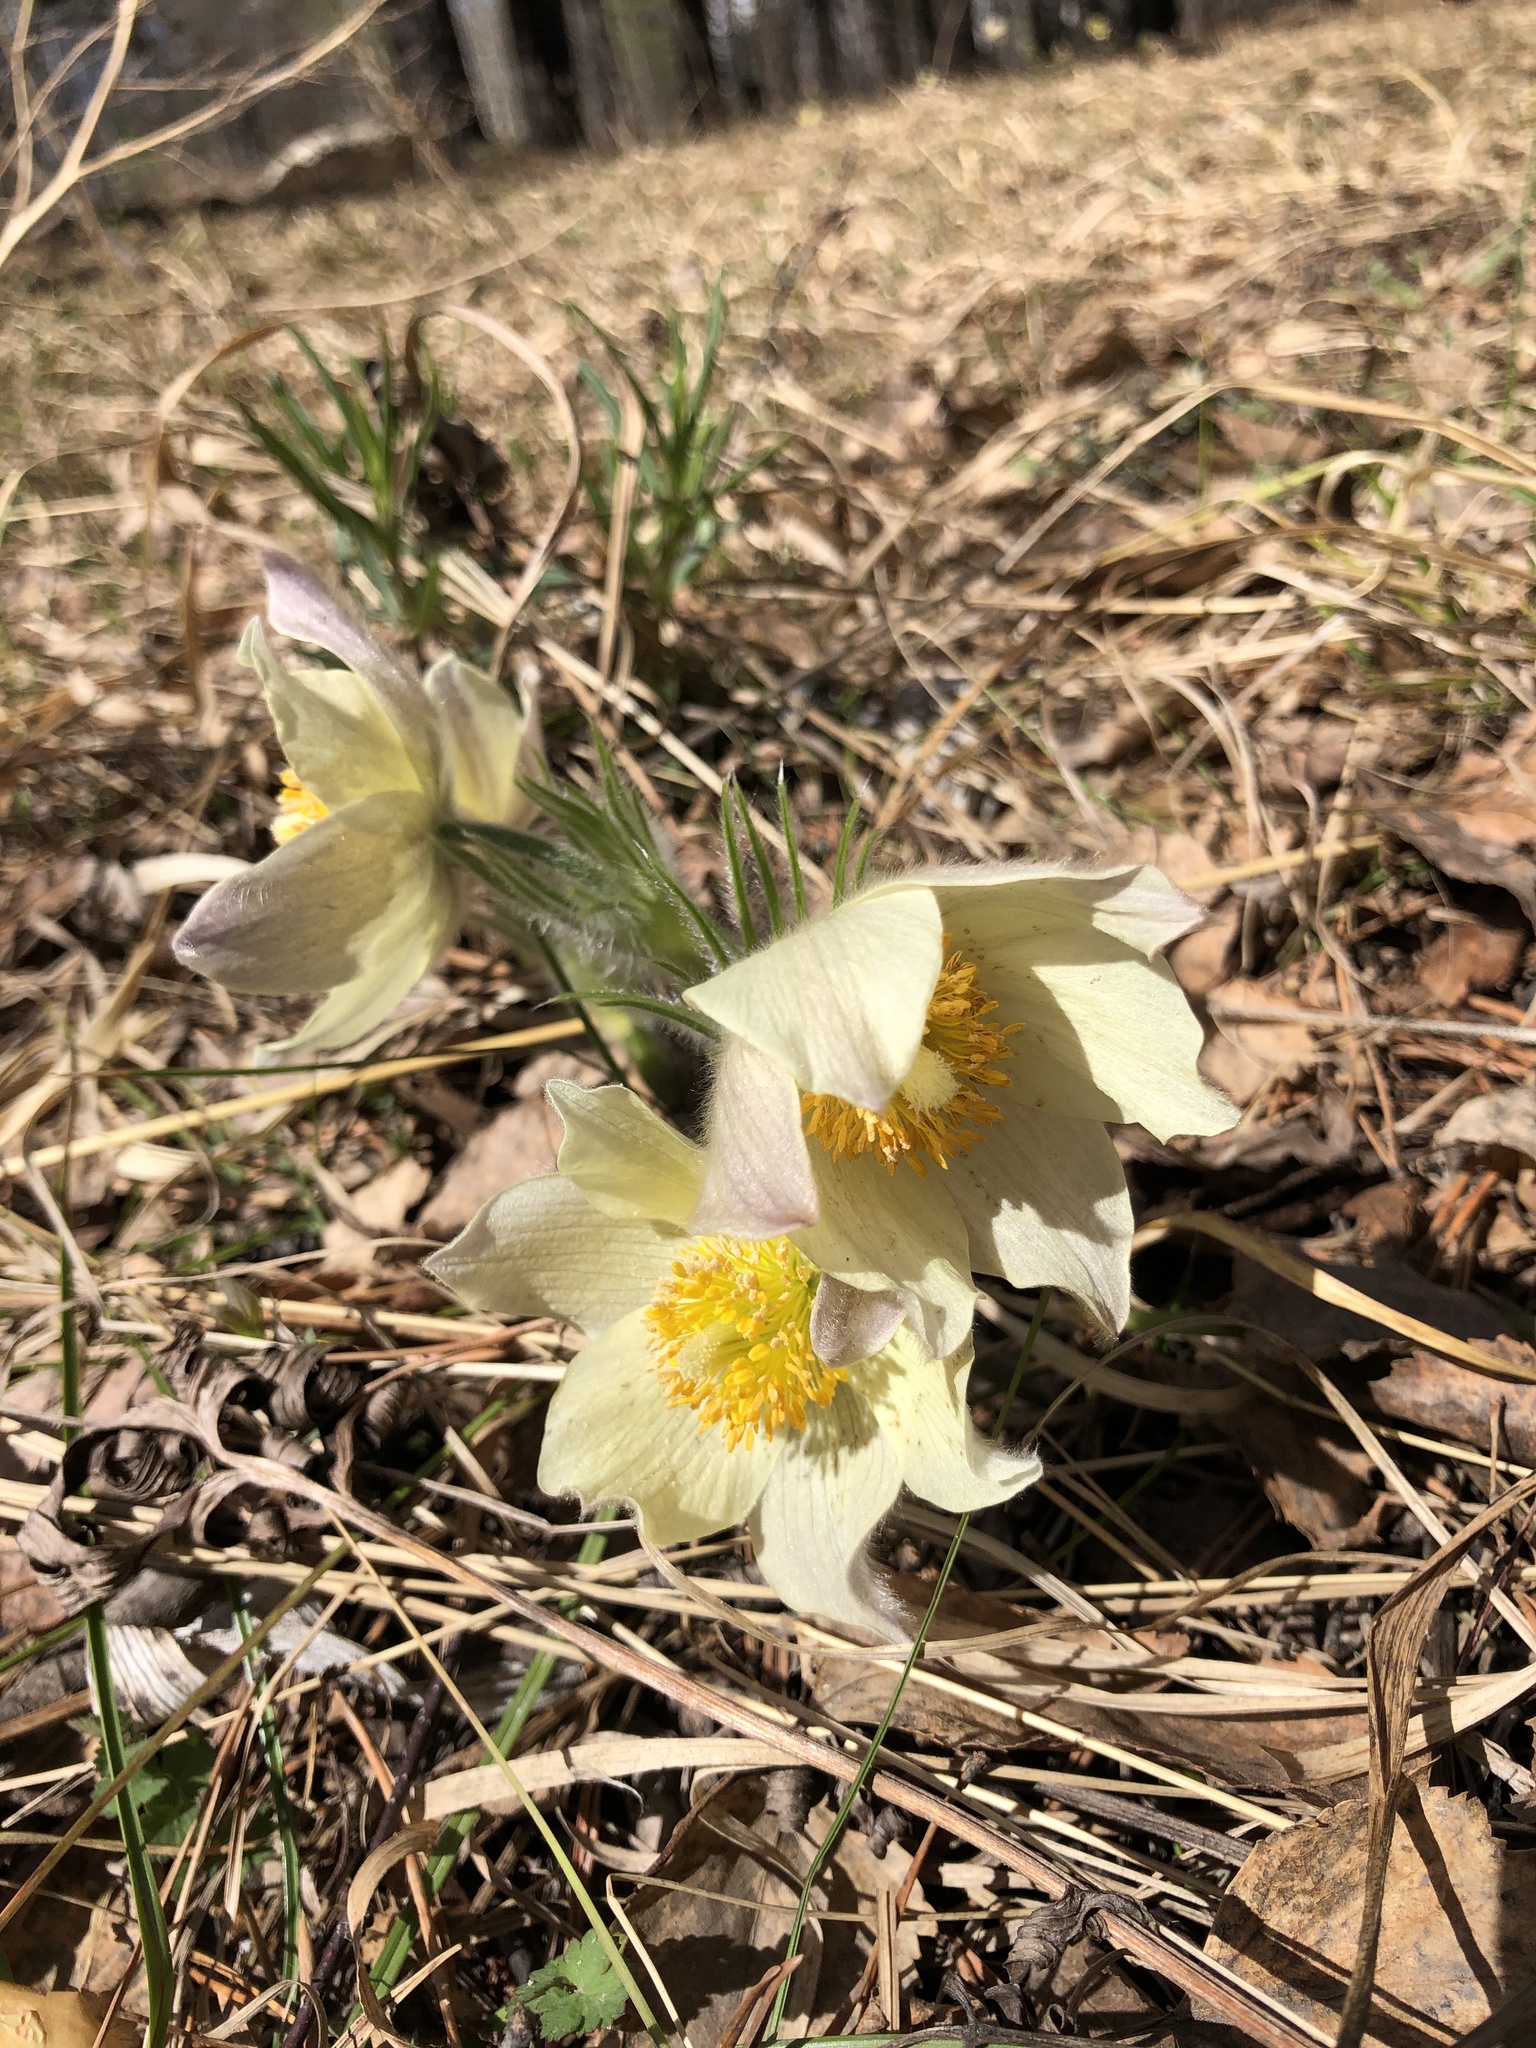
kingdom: Plantae
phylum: Tracheophyta
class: Magnoliopsida
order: Ranunculales
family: Ranunculaceae
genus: Pulsatilla
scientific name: Pulsatilla patens
